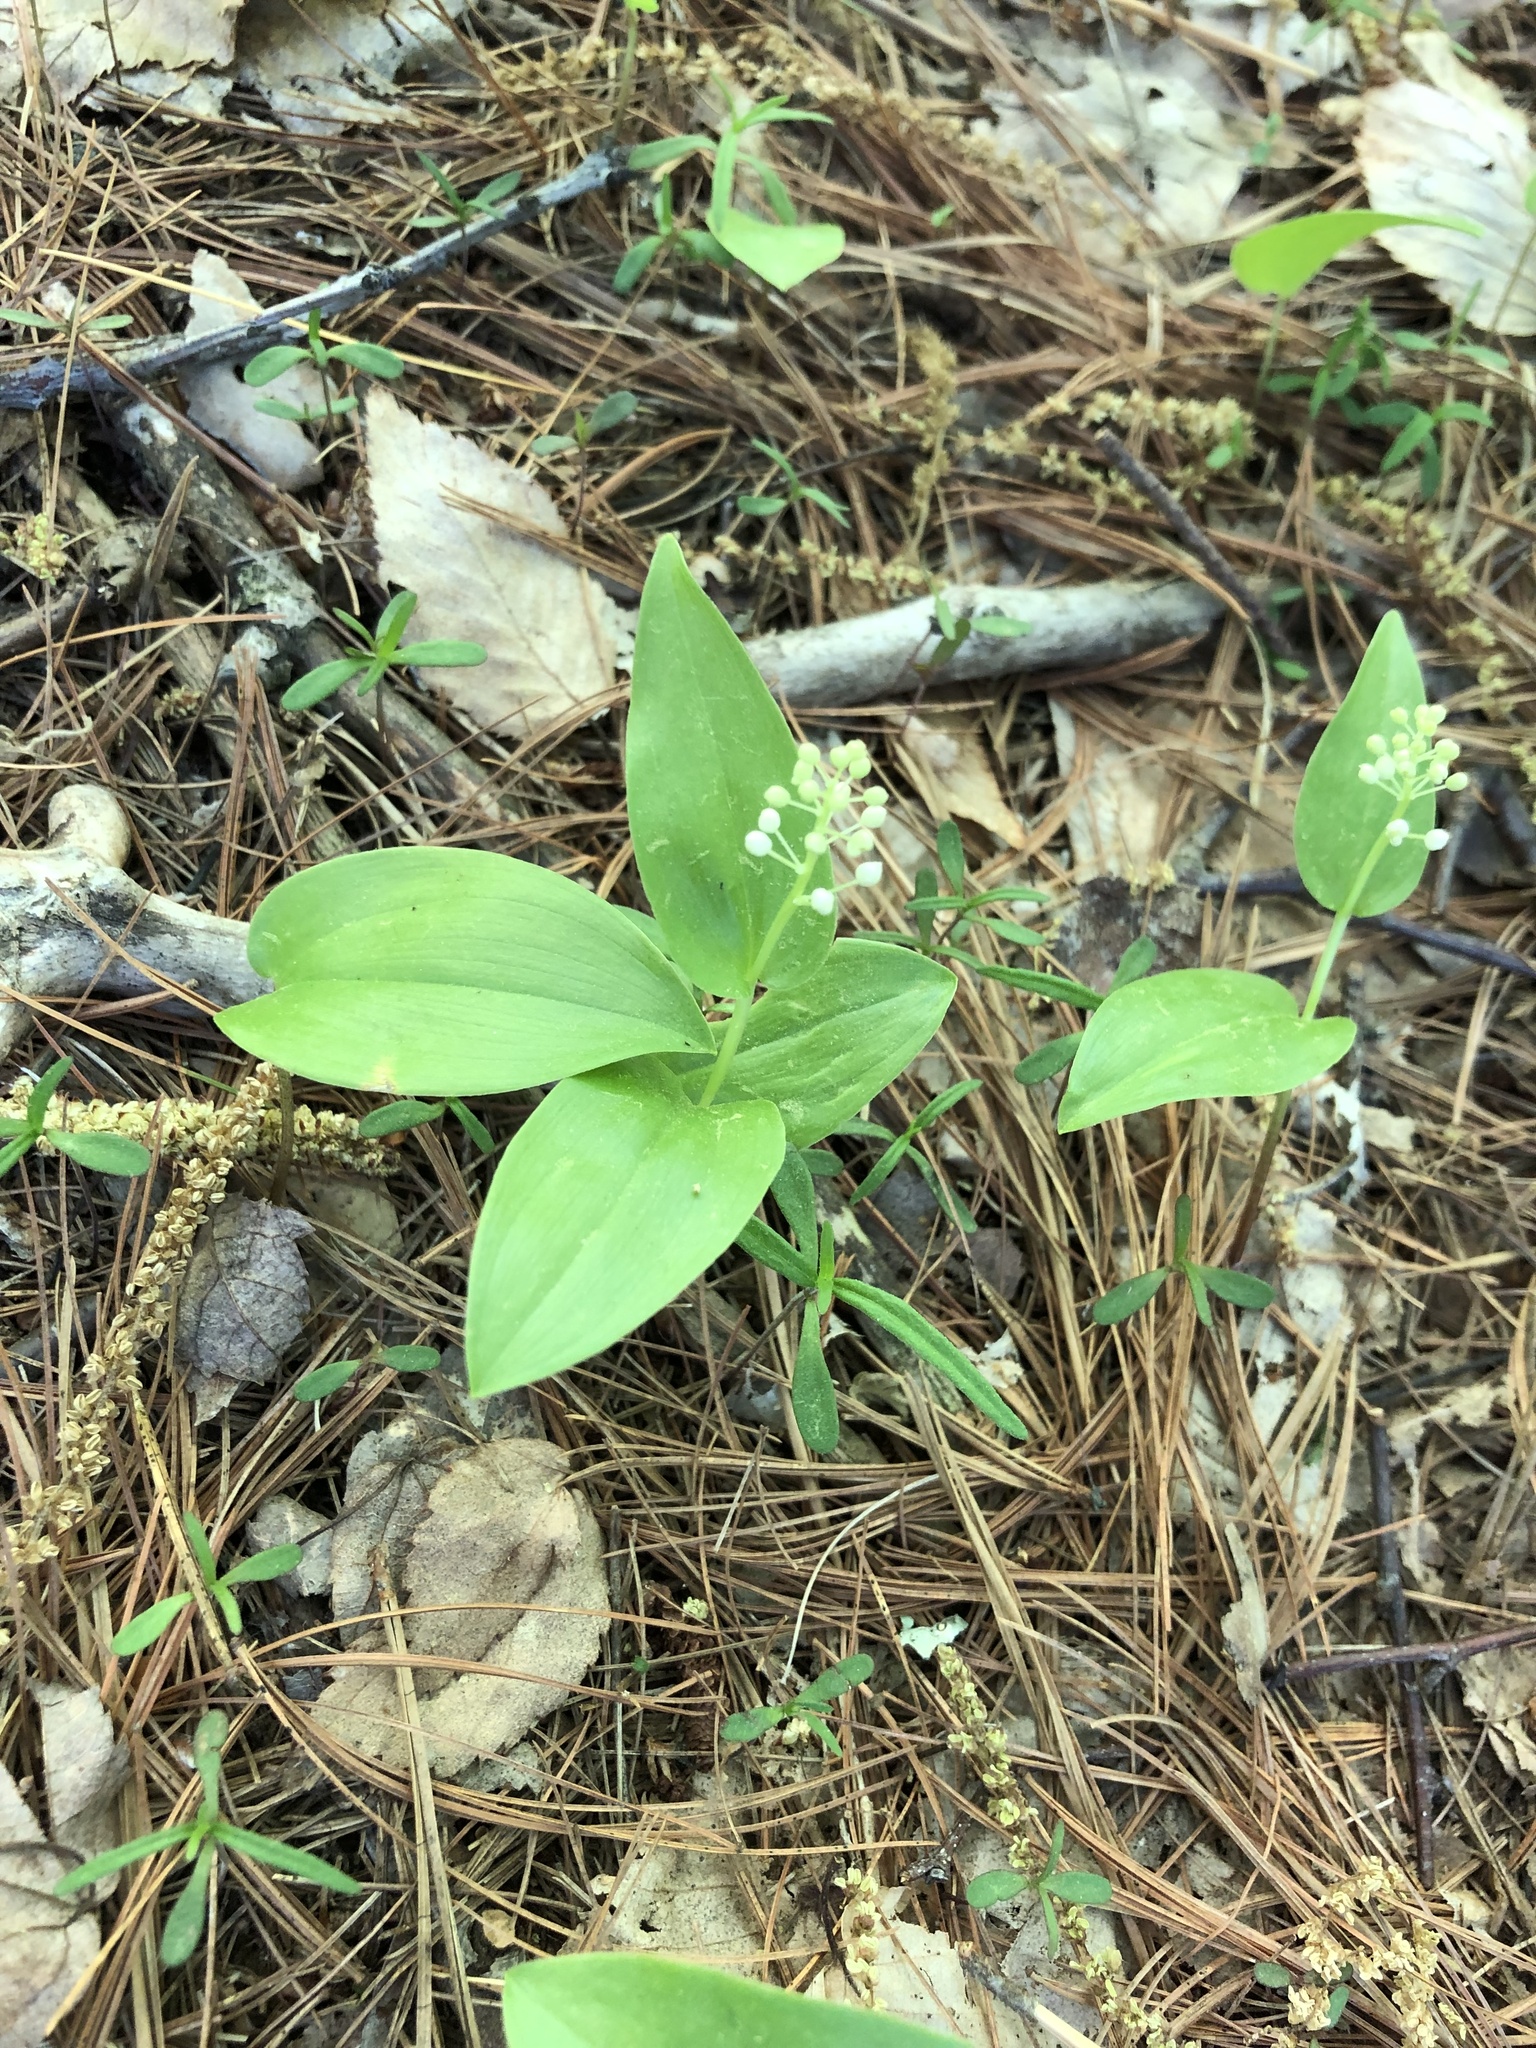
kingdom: Plantae
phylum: Tracheophyta
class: Liliopsida
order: Asparagales
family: Asparagaceae
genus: Maianthemum
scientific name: Maianthemum canadense
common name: False lily-of-the-valley
